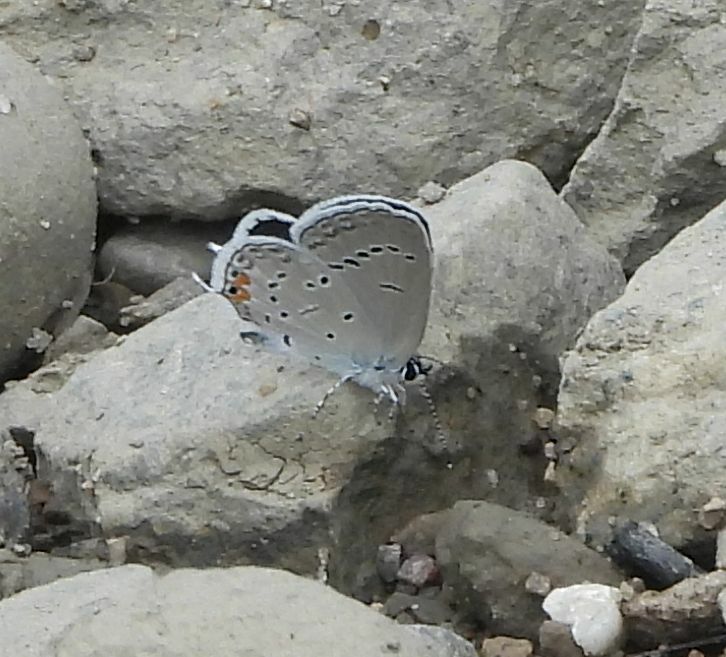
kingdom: Animalia
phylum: Arthropoda
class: Insecta
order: Lepidoptera
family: Lycaenidae
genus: Elkalyce
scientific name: Elkalyce comyntas
